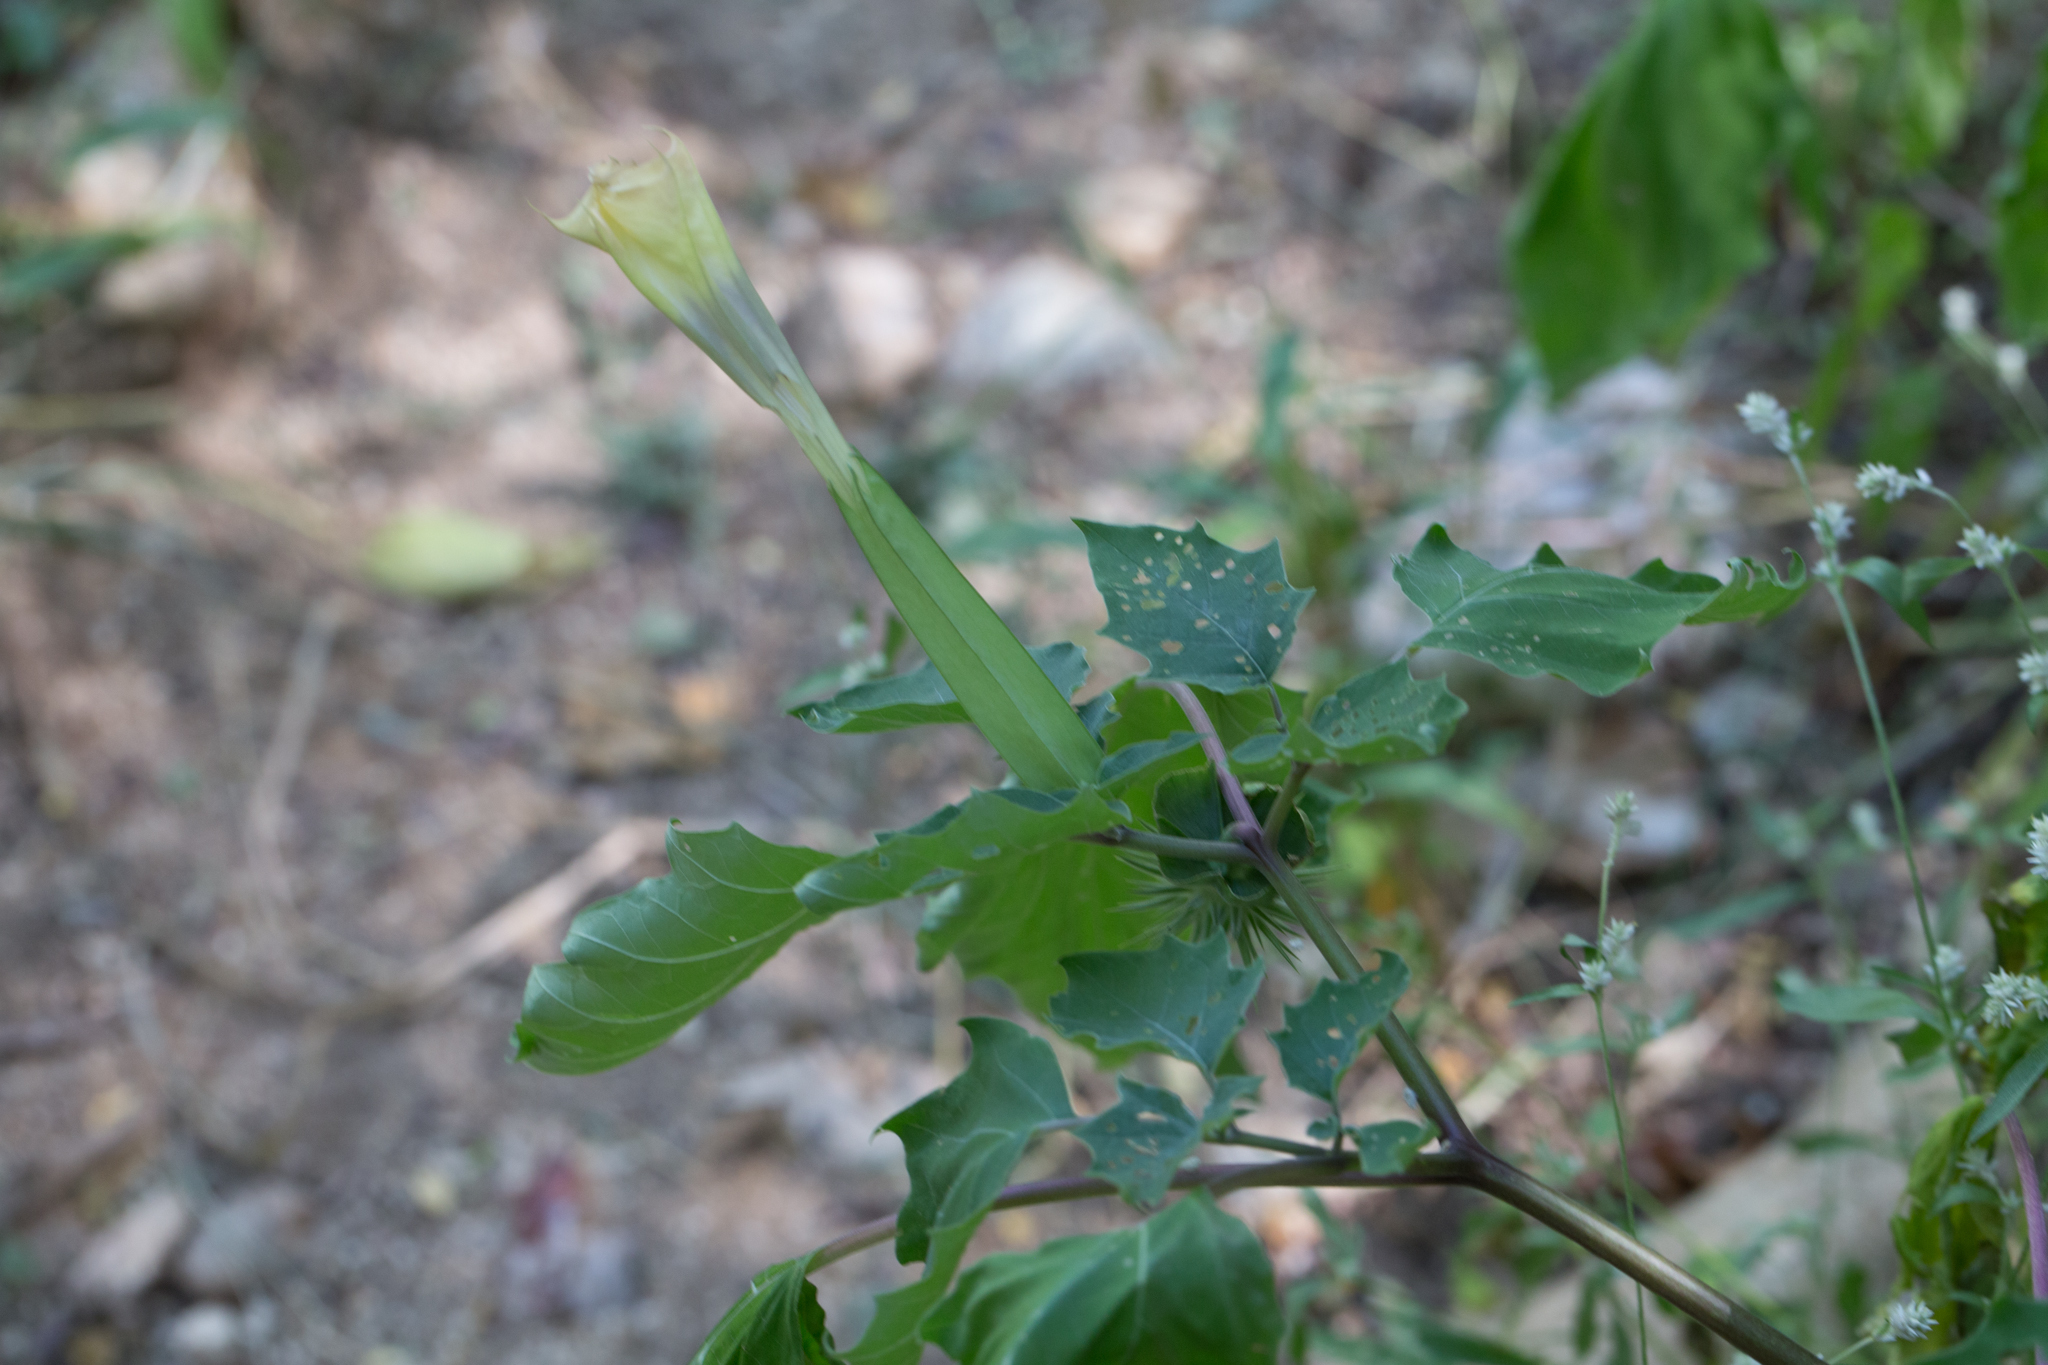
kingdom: Plantae
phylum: Tracheophyta
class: Magnoliopsida
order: Solanales
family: Solanaceae
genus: Datura
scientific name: Datura discolor
